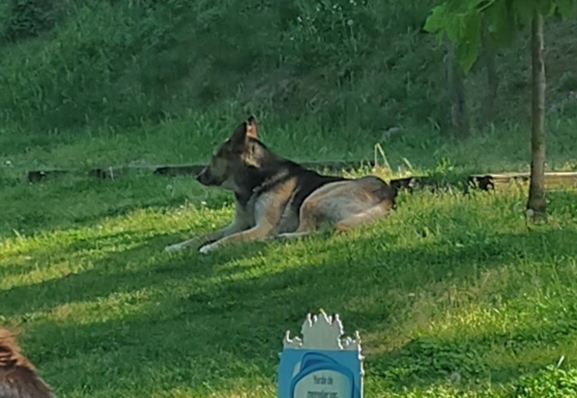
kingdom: Animalia
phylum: Chordata
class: Mammalia
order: Carnivora
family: Canidae
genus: Canis
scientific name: Canis lupus
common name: Gray wolf
